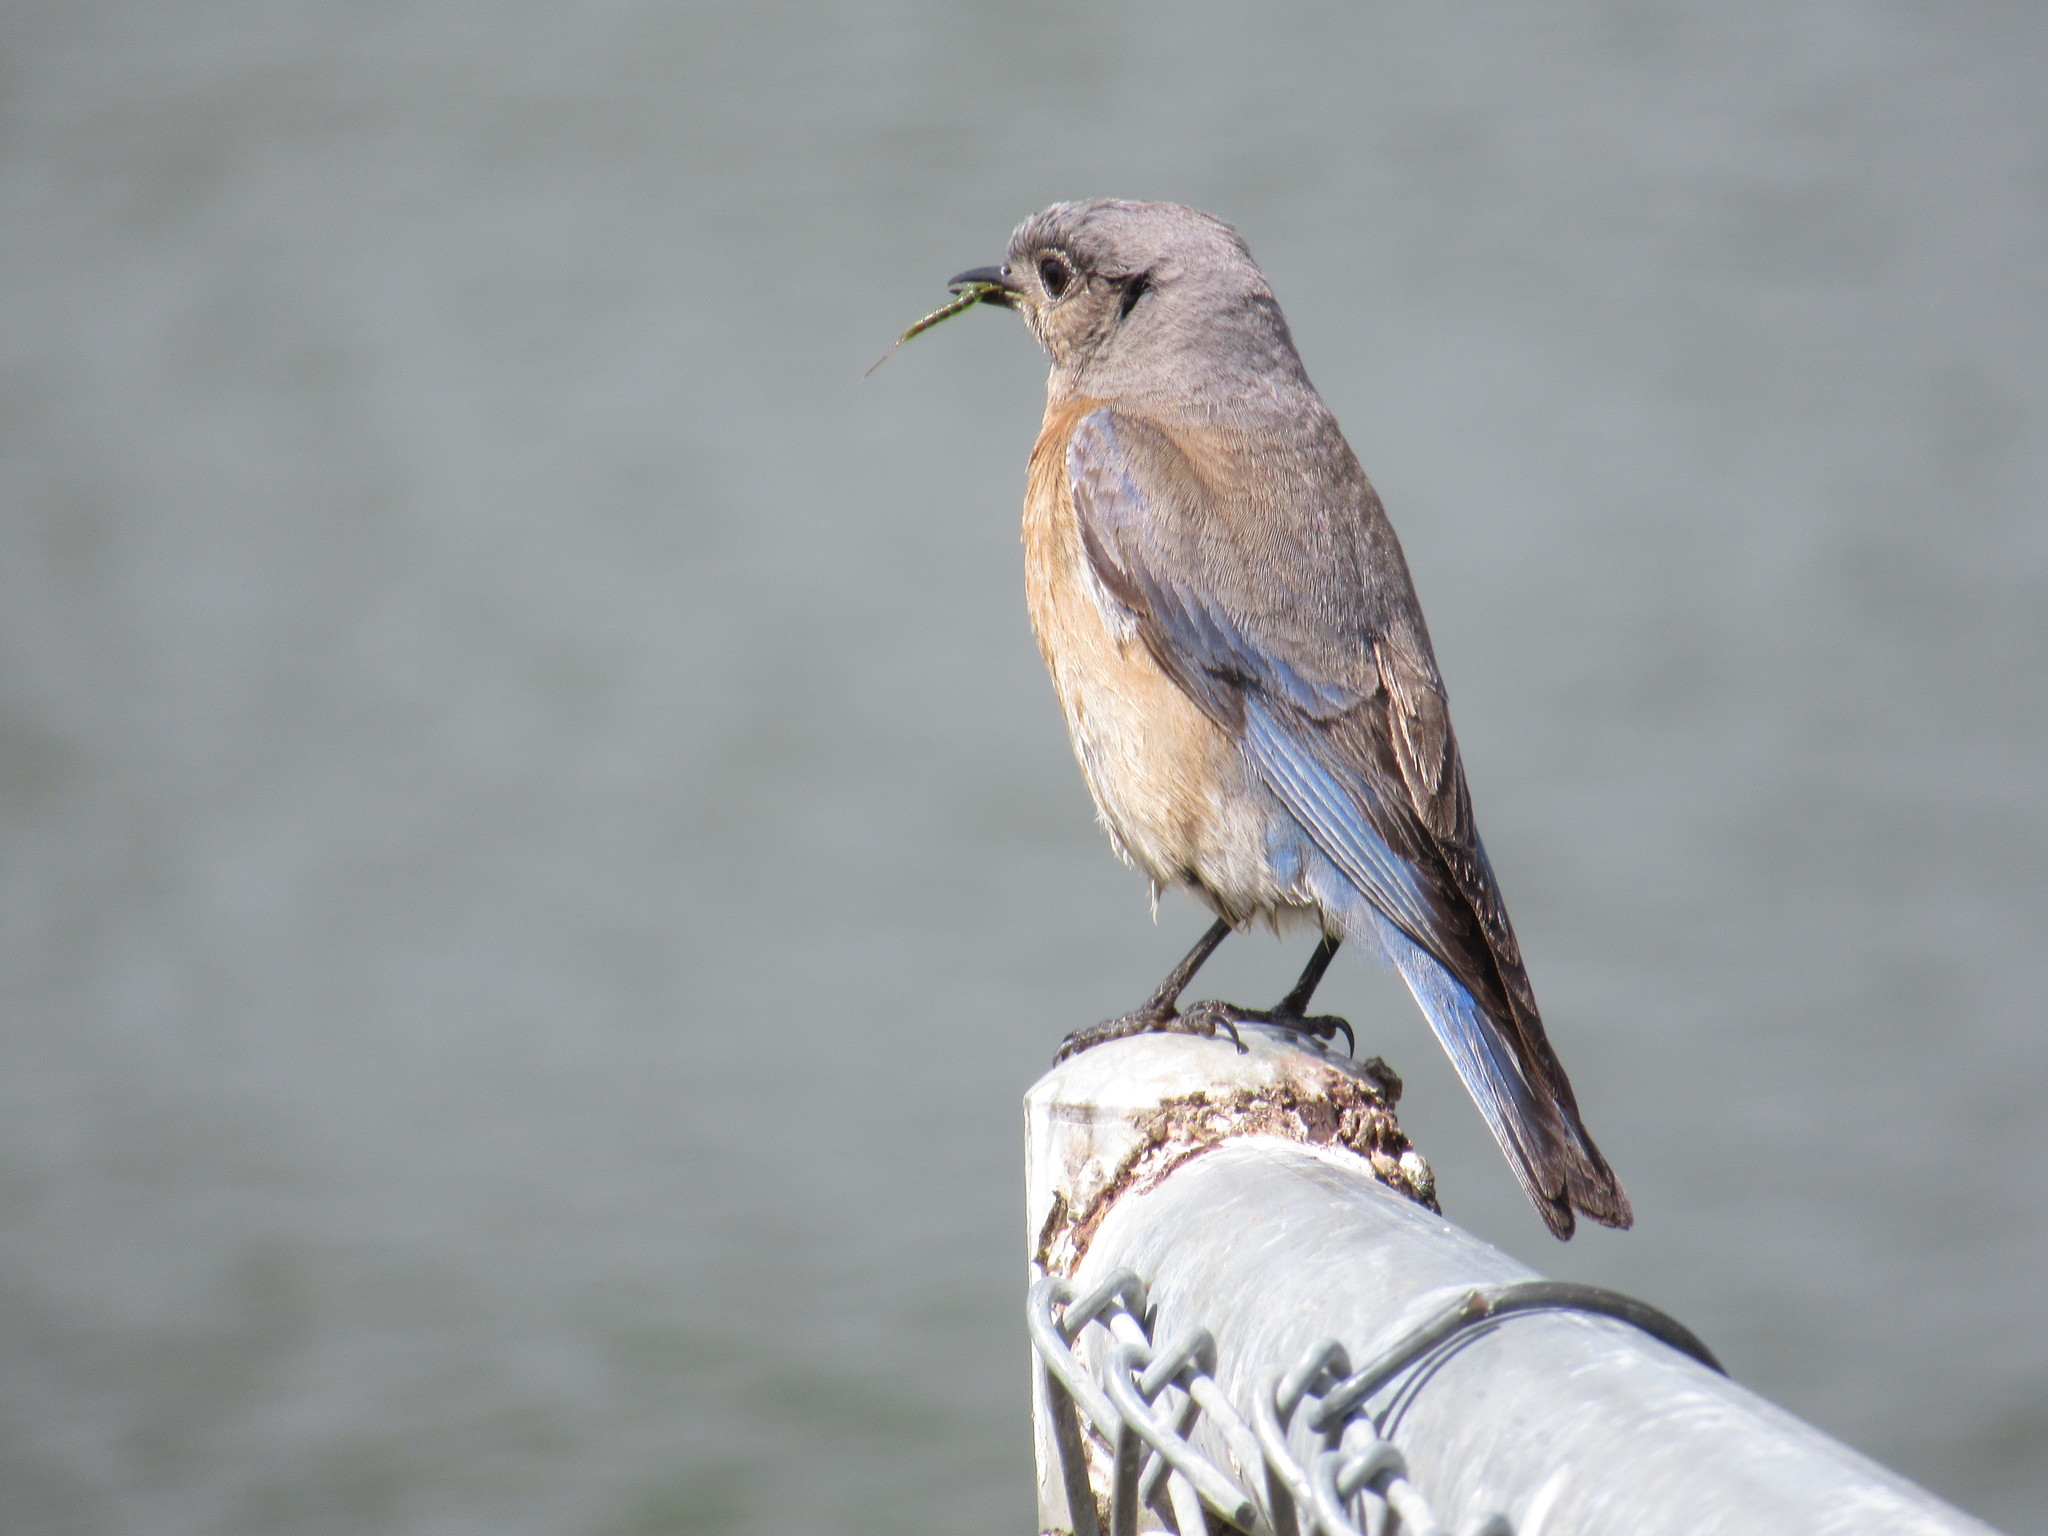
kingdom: Animalia
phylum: Chordata
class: Aves
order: Passeriformes
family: Turdidae
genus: Sialia
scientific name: Sialia mexicana
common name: Western bluebird
